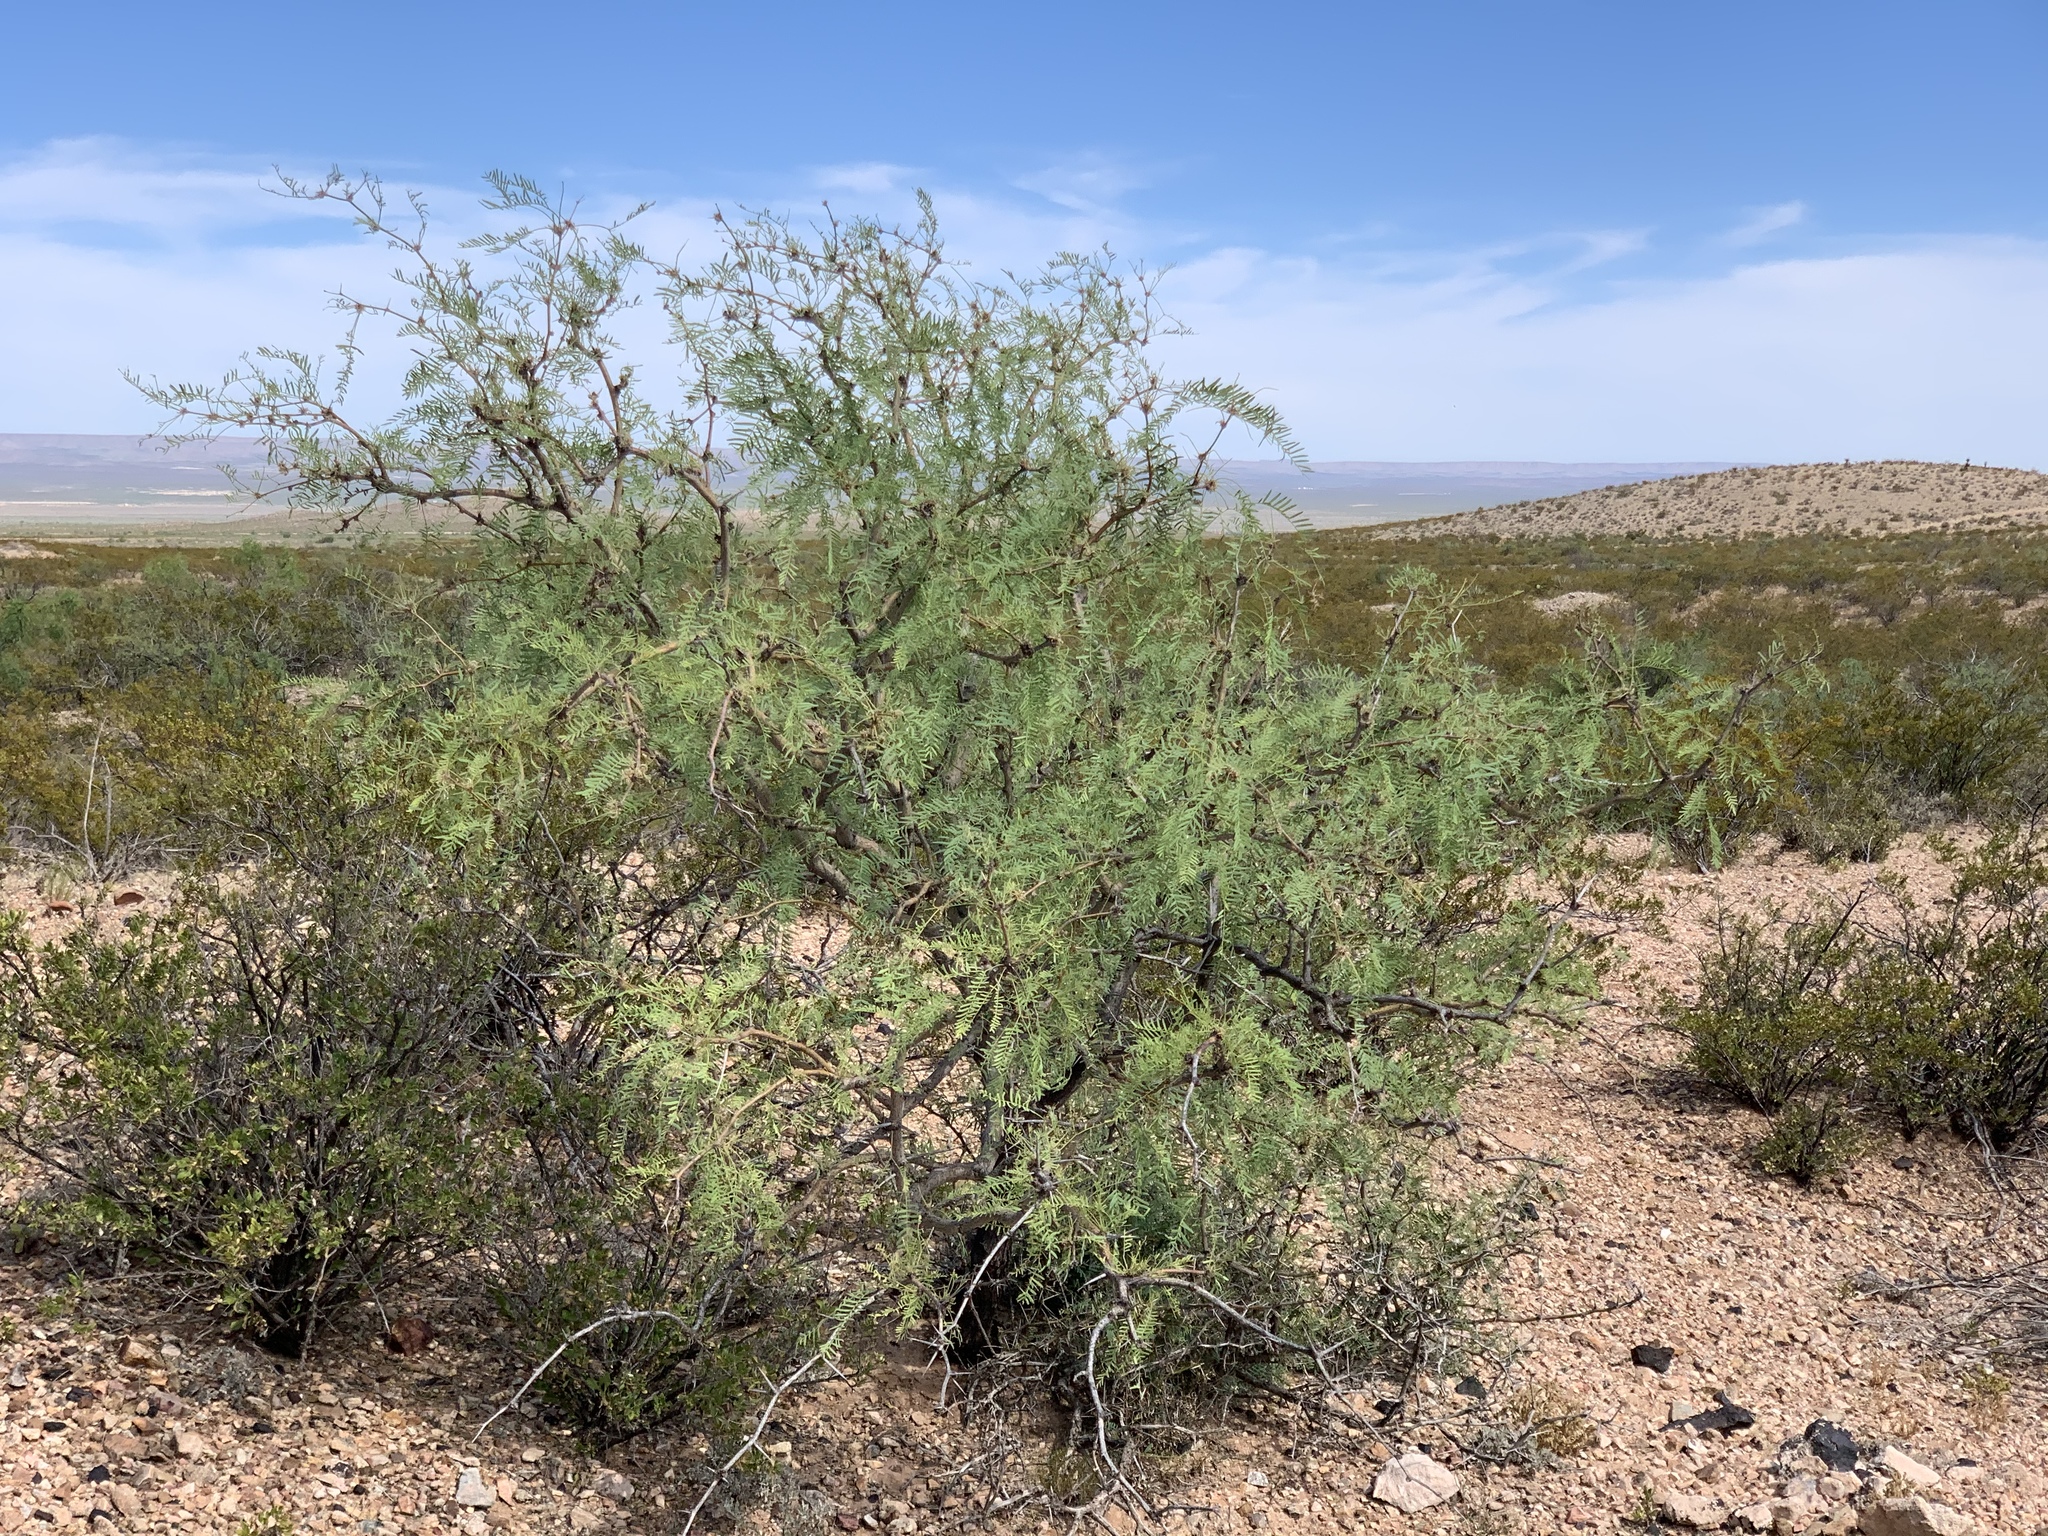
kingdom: Plantae
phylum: Tracheophyta
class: Magnoliopsida
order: Fabales
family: Fabaceae
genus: Prosopis
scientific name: Prosopis glandulosa
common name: Honey mesquite
